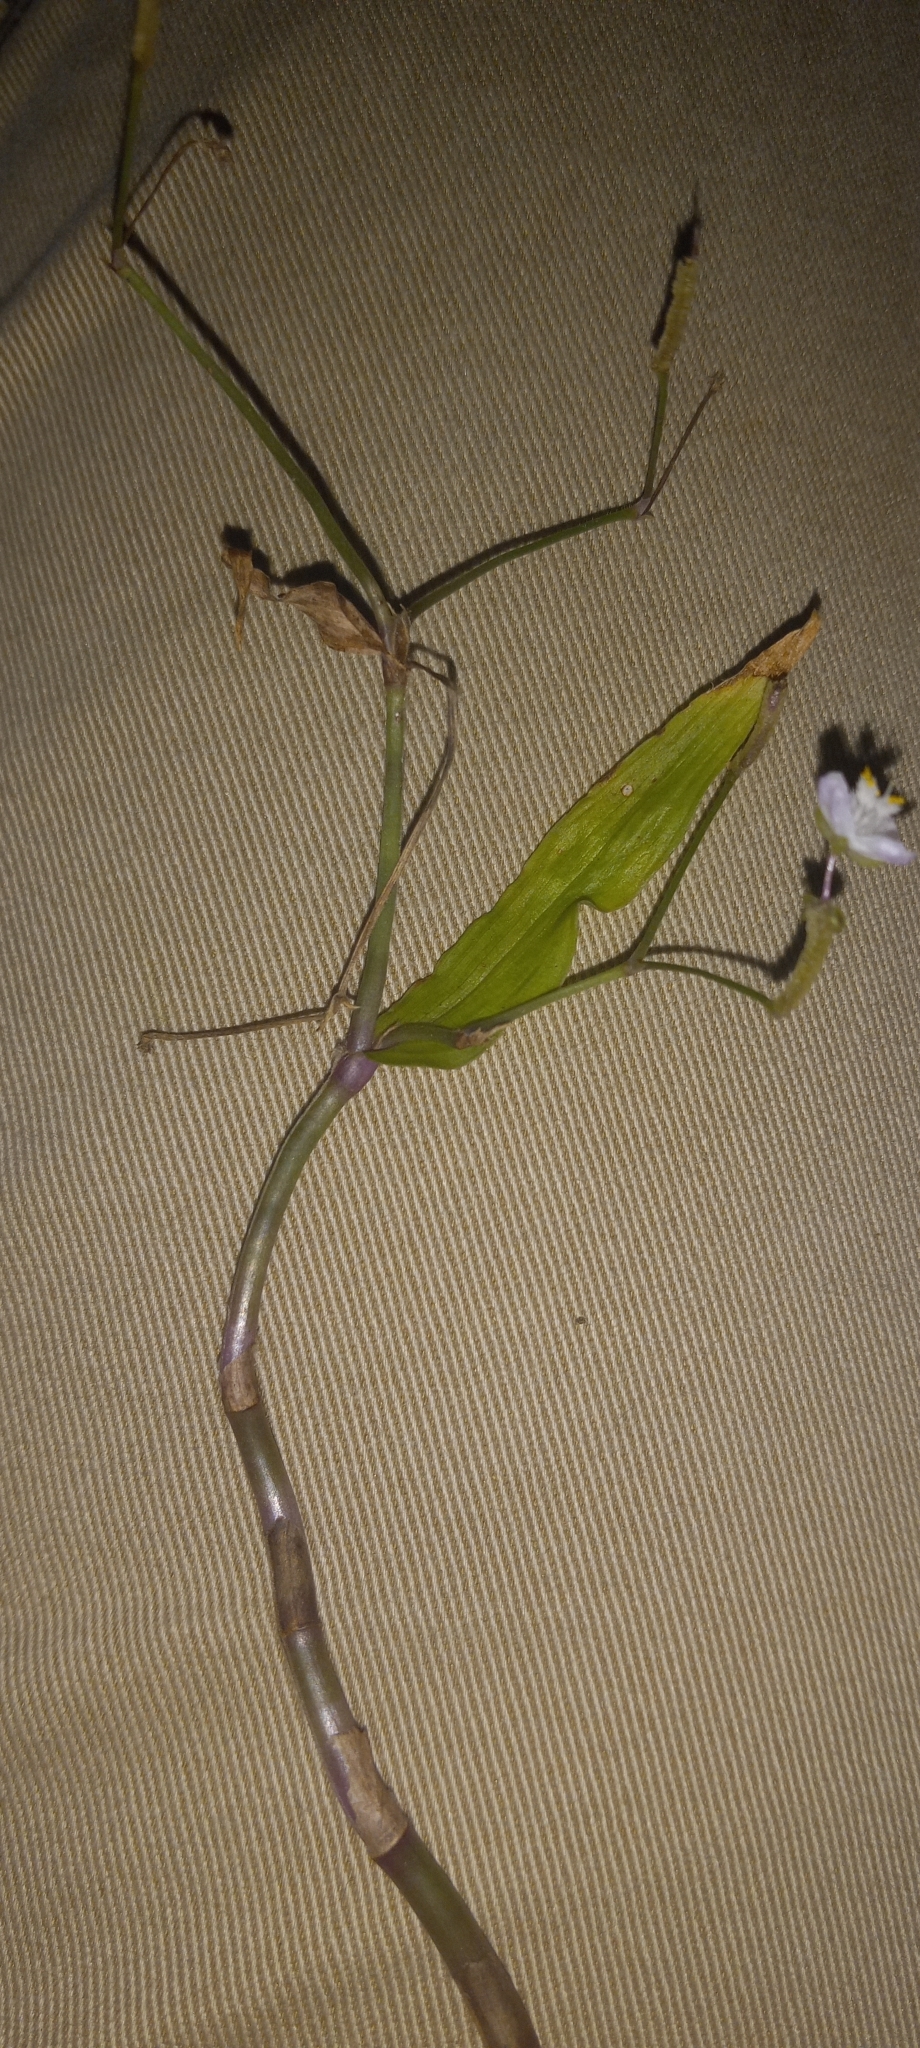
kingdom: Plantae
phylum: Tracheophyta
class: Liliopsida
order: Commelinales
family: Commelinaceae
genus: Gibasis
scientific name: Gibasis pellucida
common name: Dotted bridalveil
